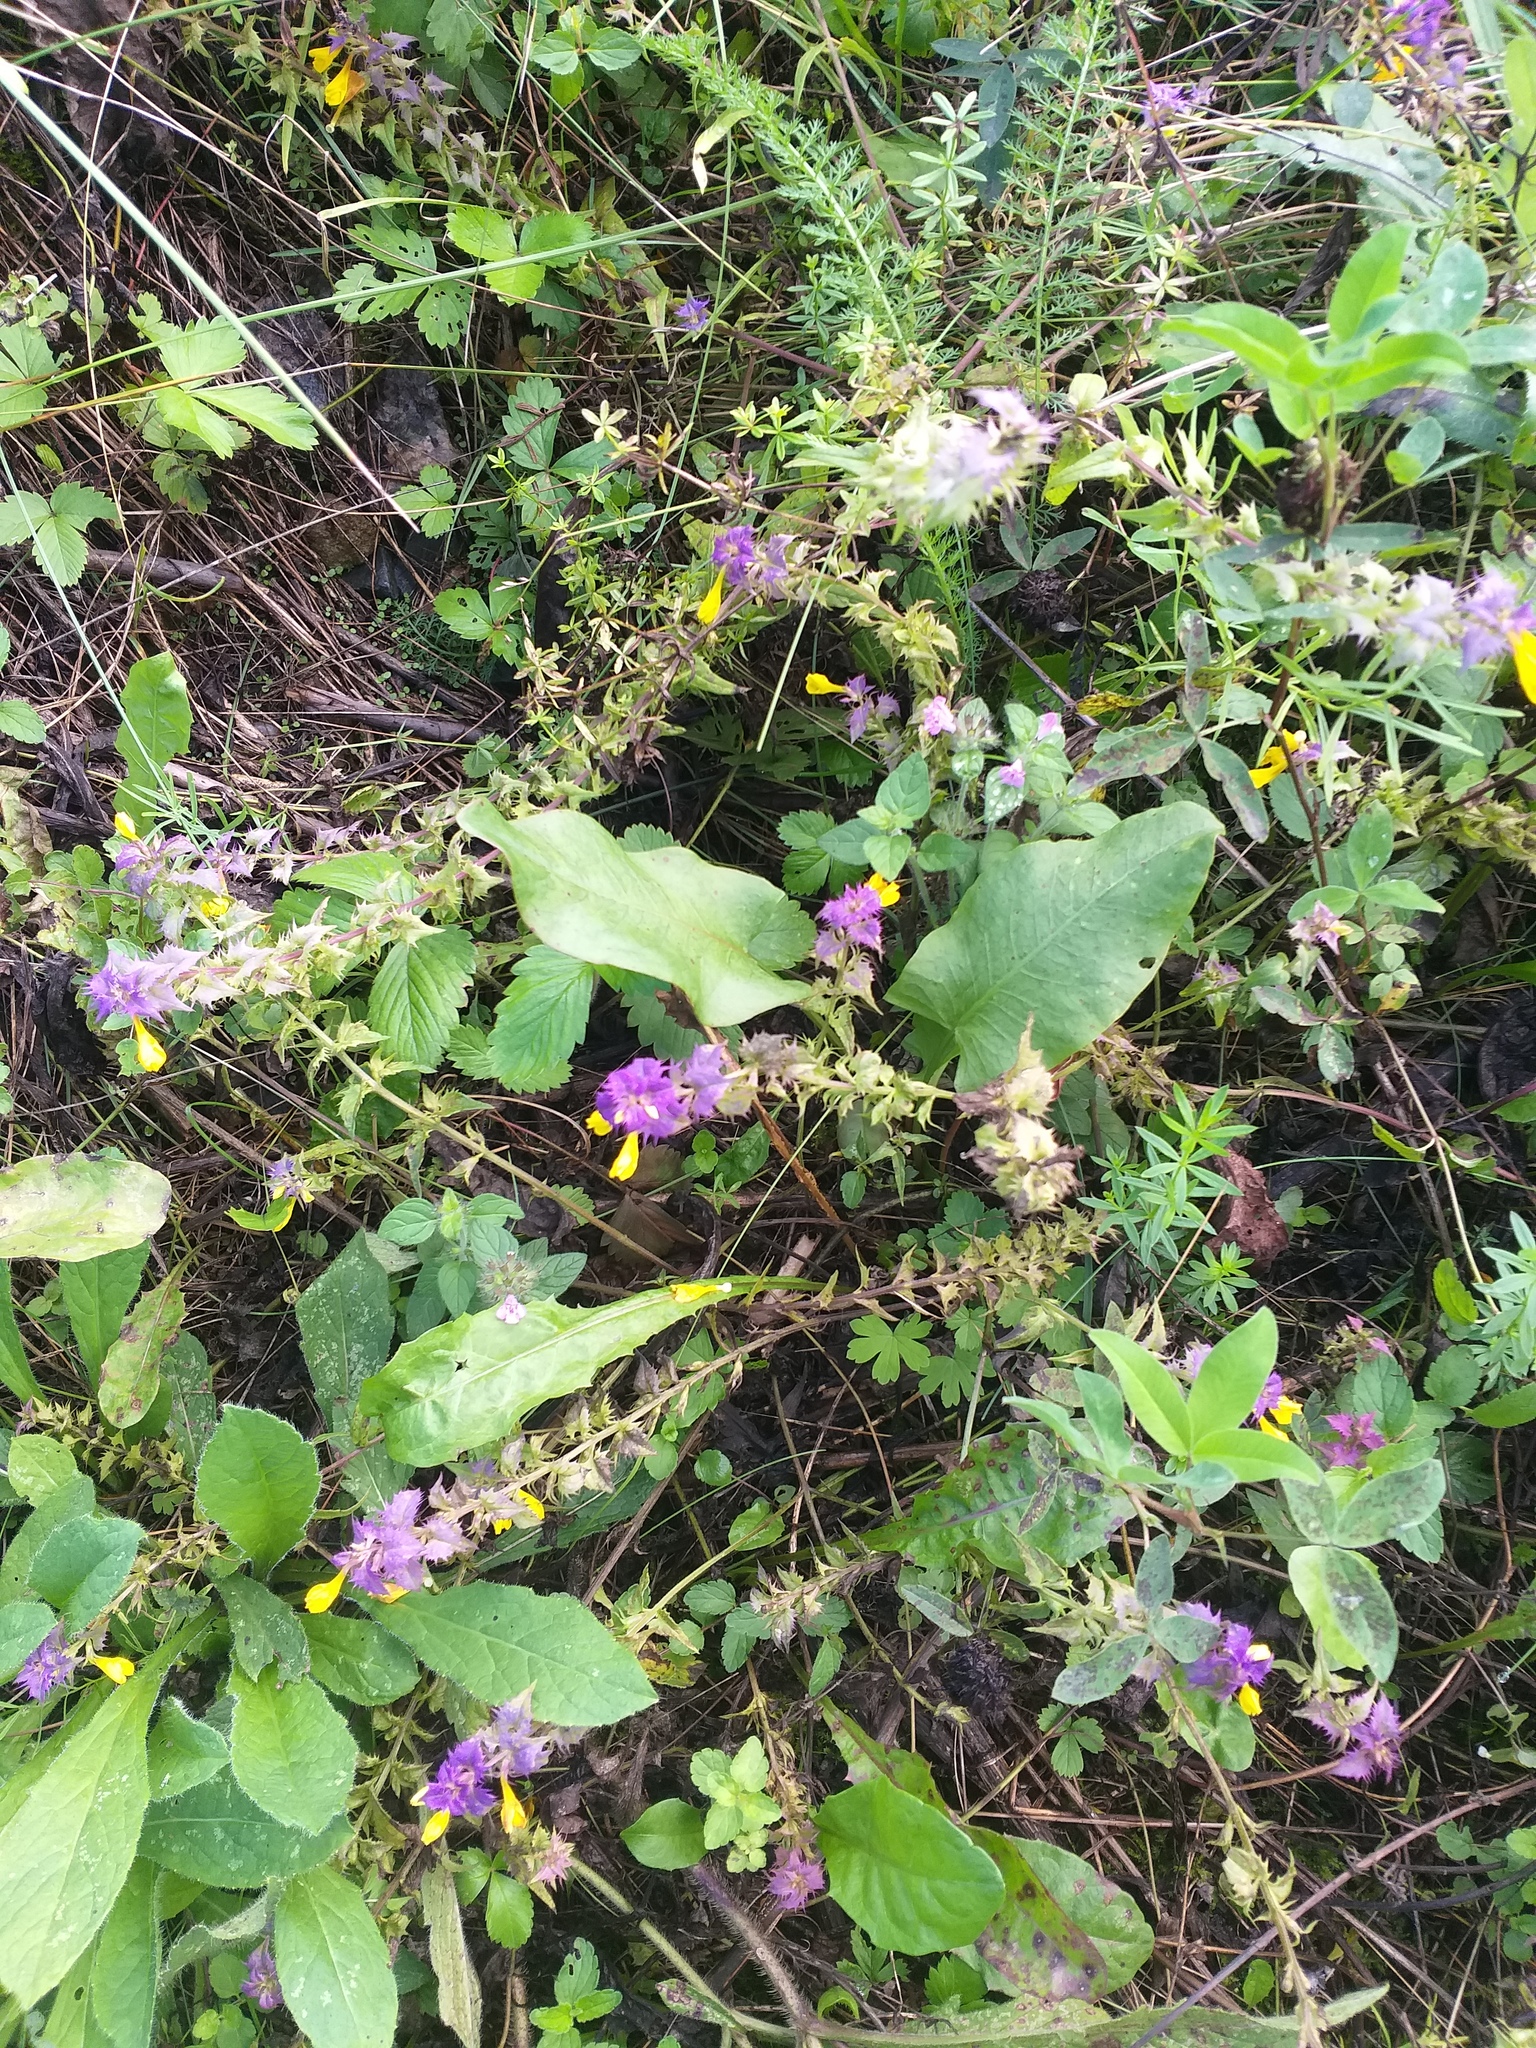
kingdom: Plantae
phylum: Tracheophyta
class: Magnoliopsida
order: Lamiales
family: Orobanchaceae
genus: Melampyrum
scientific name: Melampyrum nemorosum
